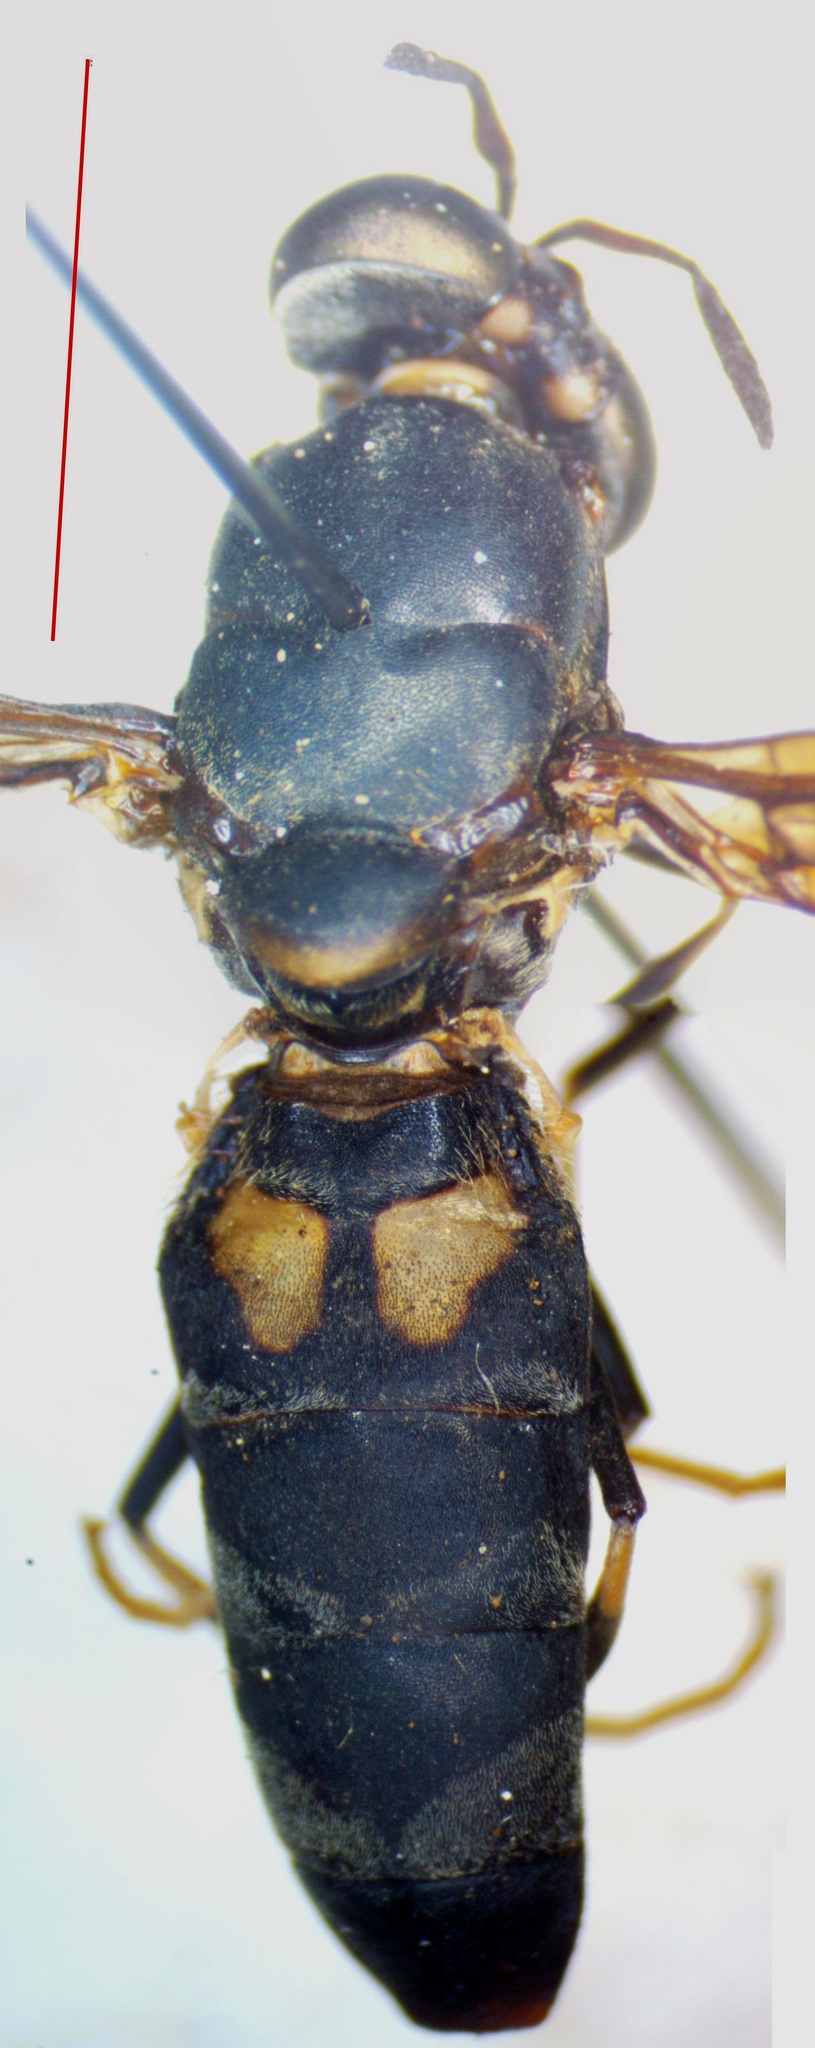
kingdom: Animalia
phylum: Arthropoda
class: Insecta
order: Diptera
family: Stratiomyidae
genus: Hermetia
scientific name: Hermetia illucens
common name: Black soldier fly
